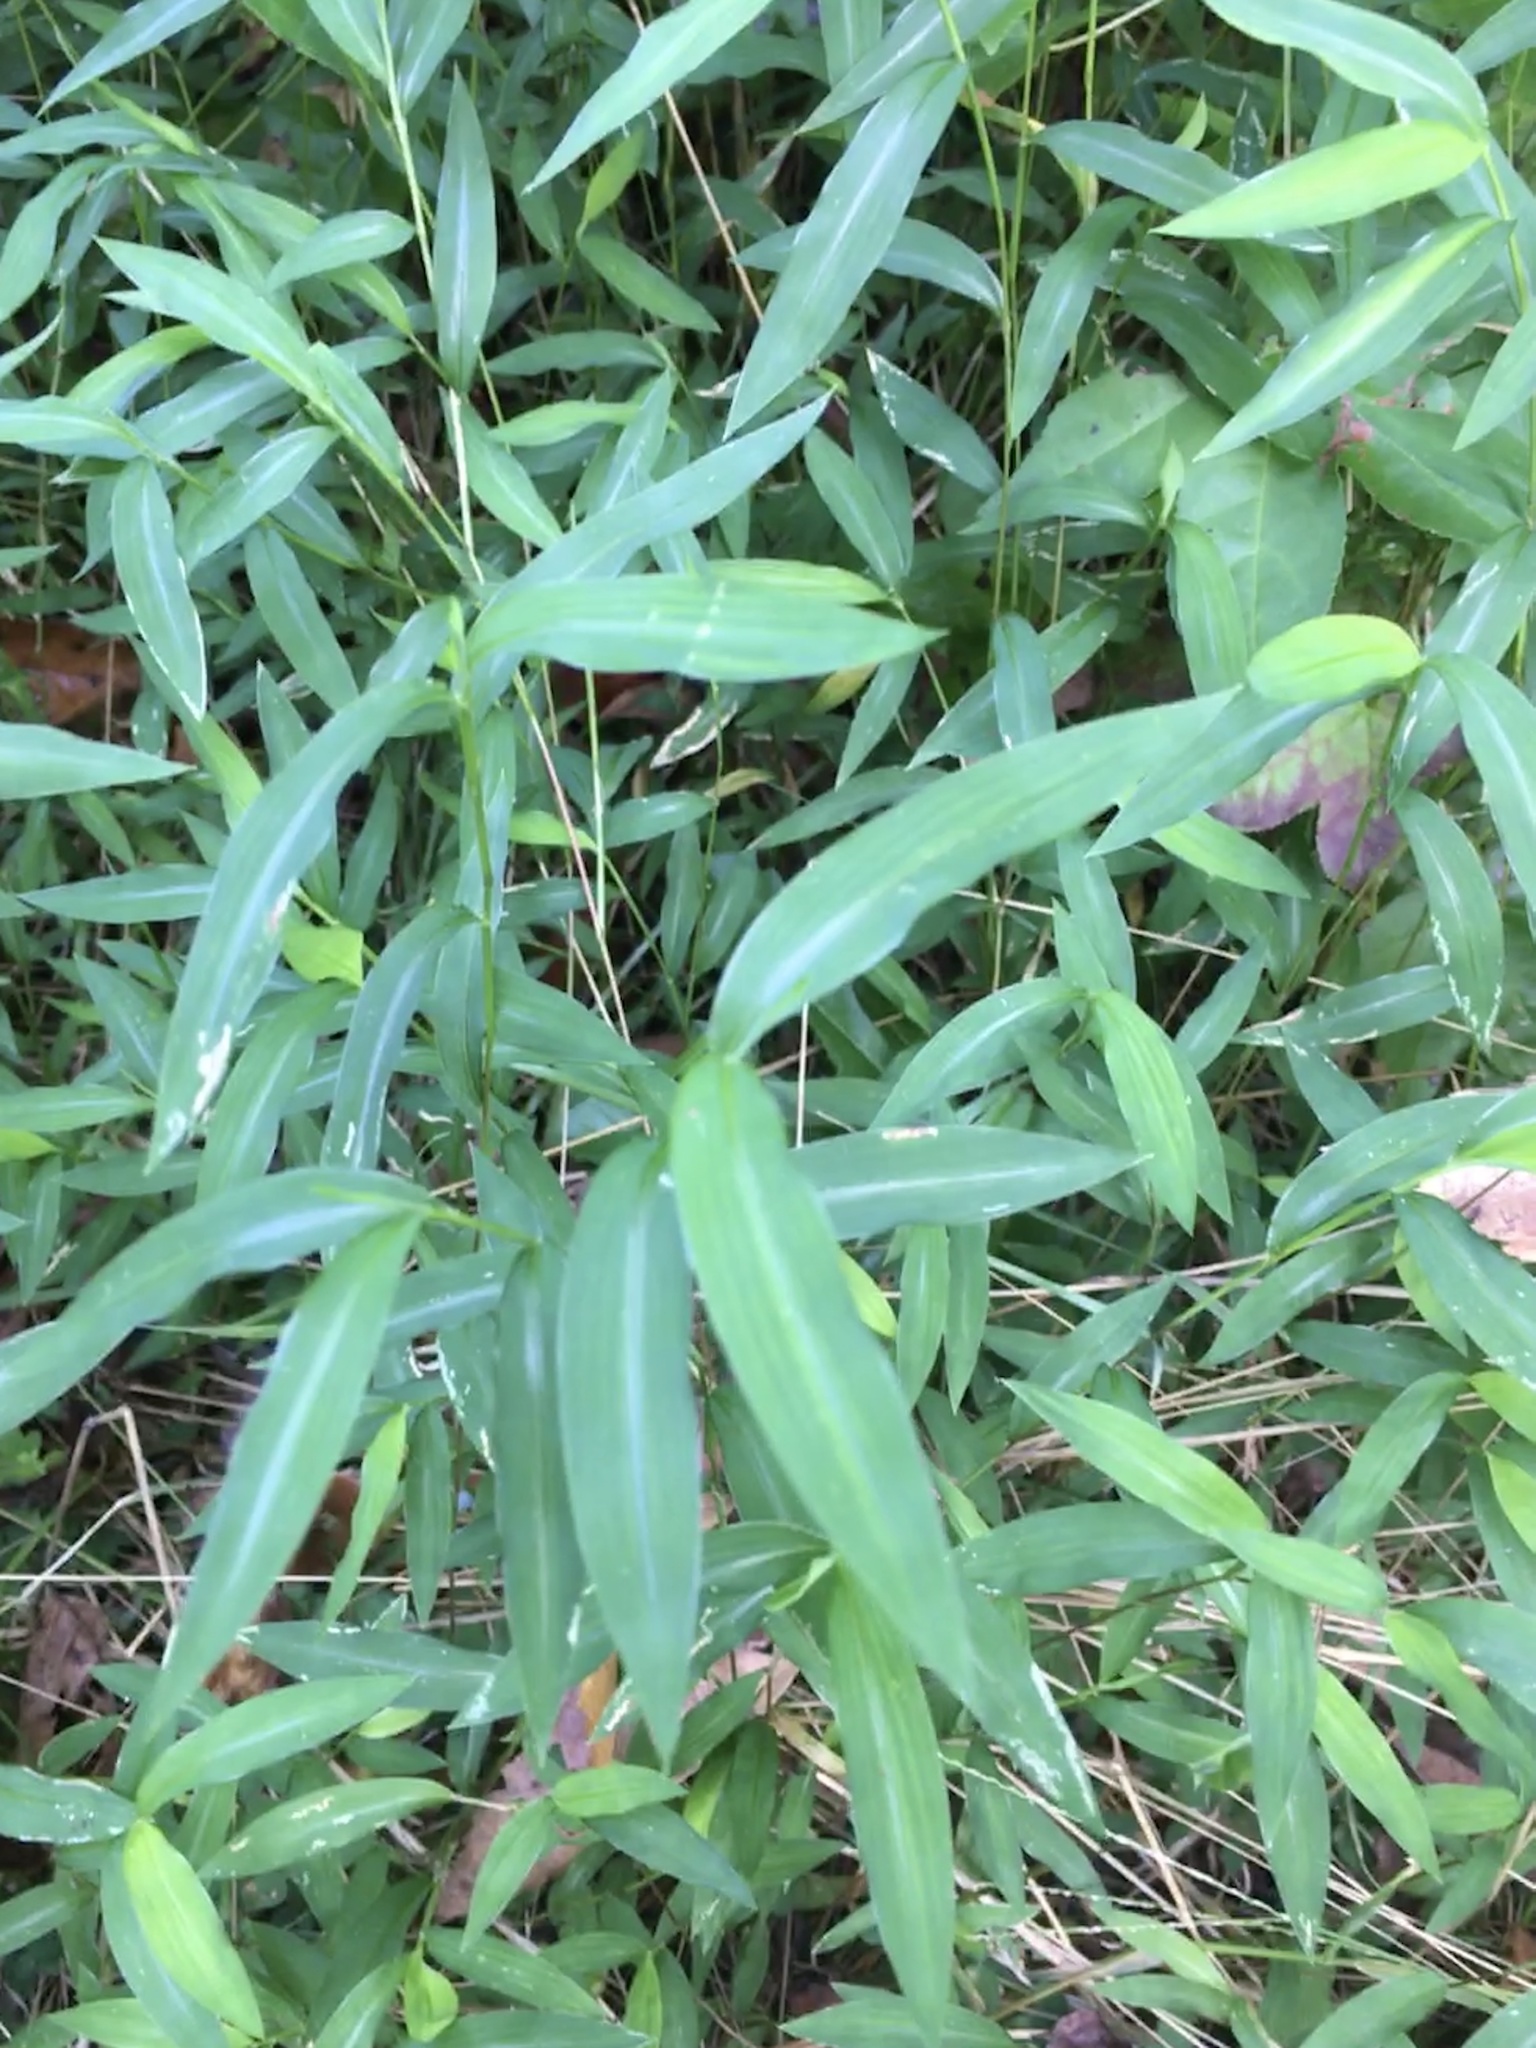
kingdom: Plantae
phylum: Tracheophyta
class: Liliopsida
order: Poales
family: Poaceae
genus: Microstegium
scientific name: Microstegium vimineum
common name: Japanese stiltgrass
